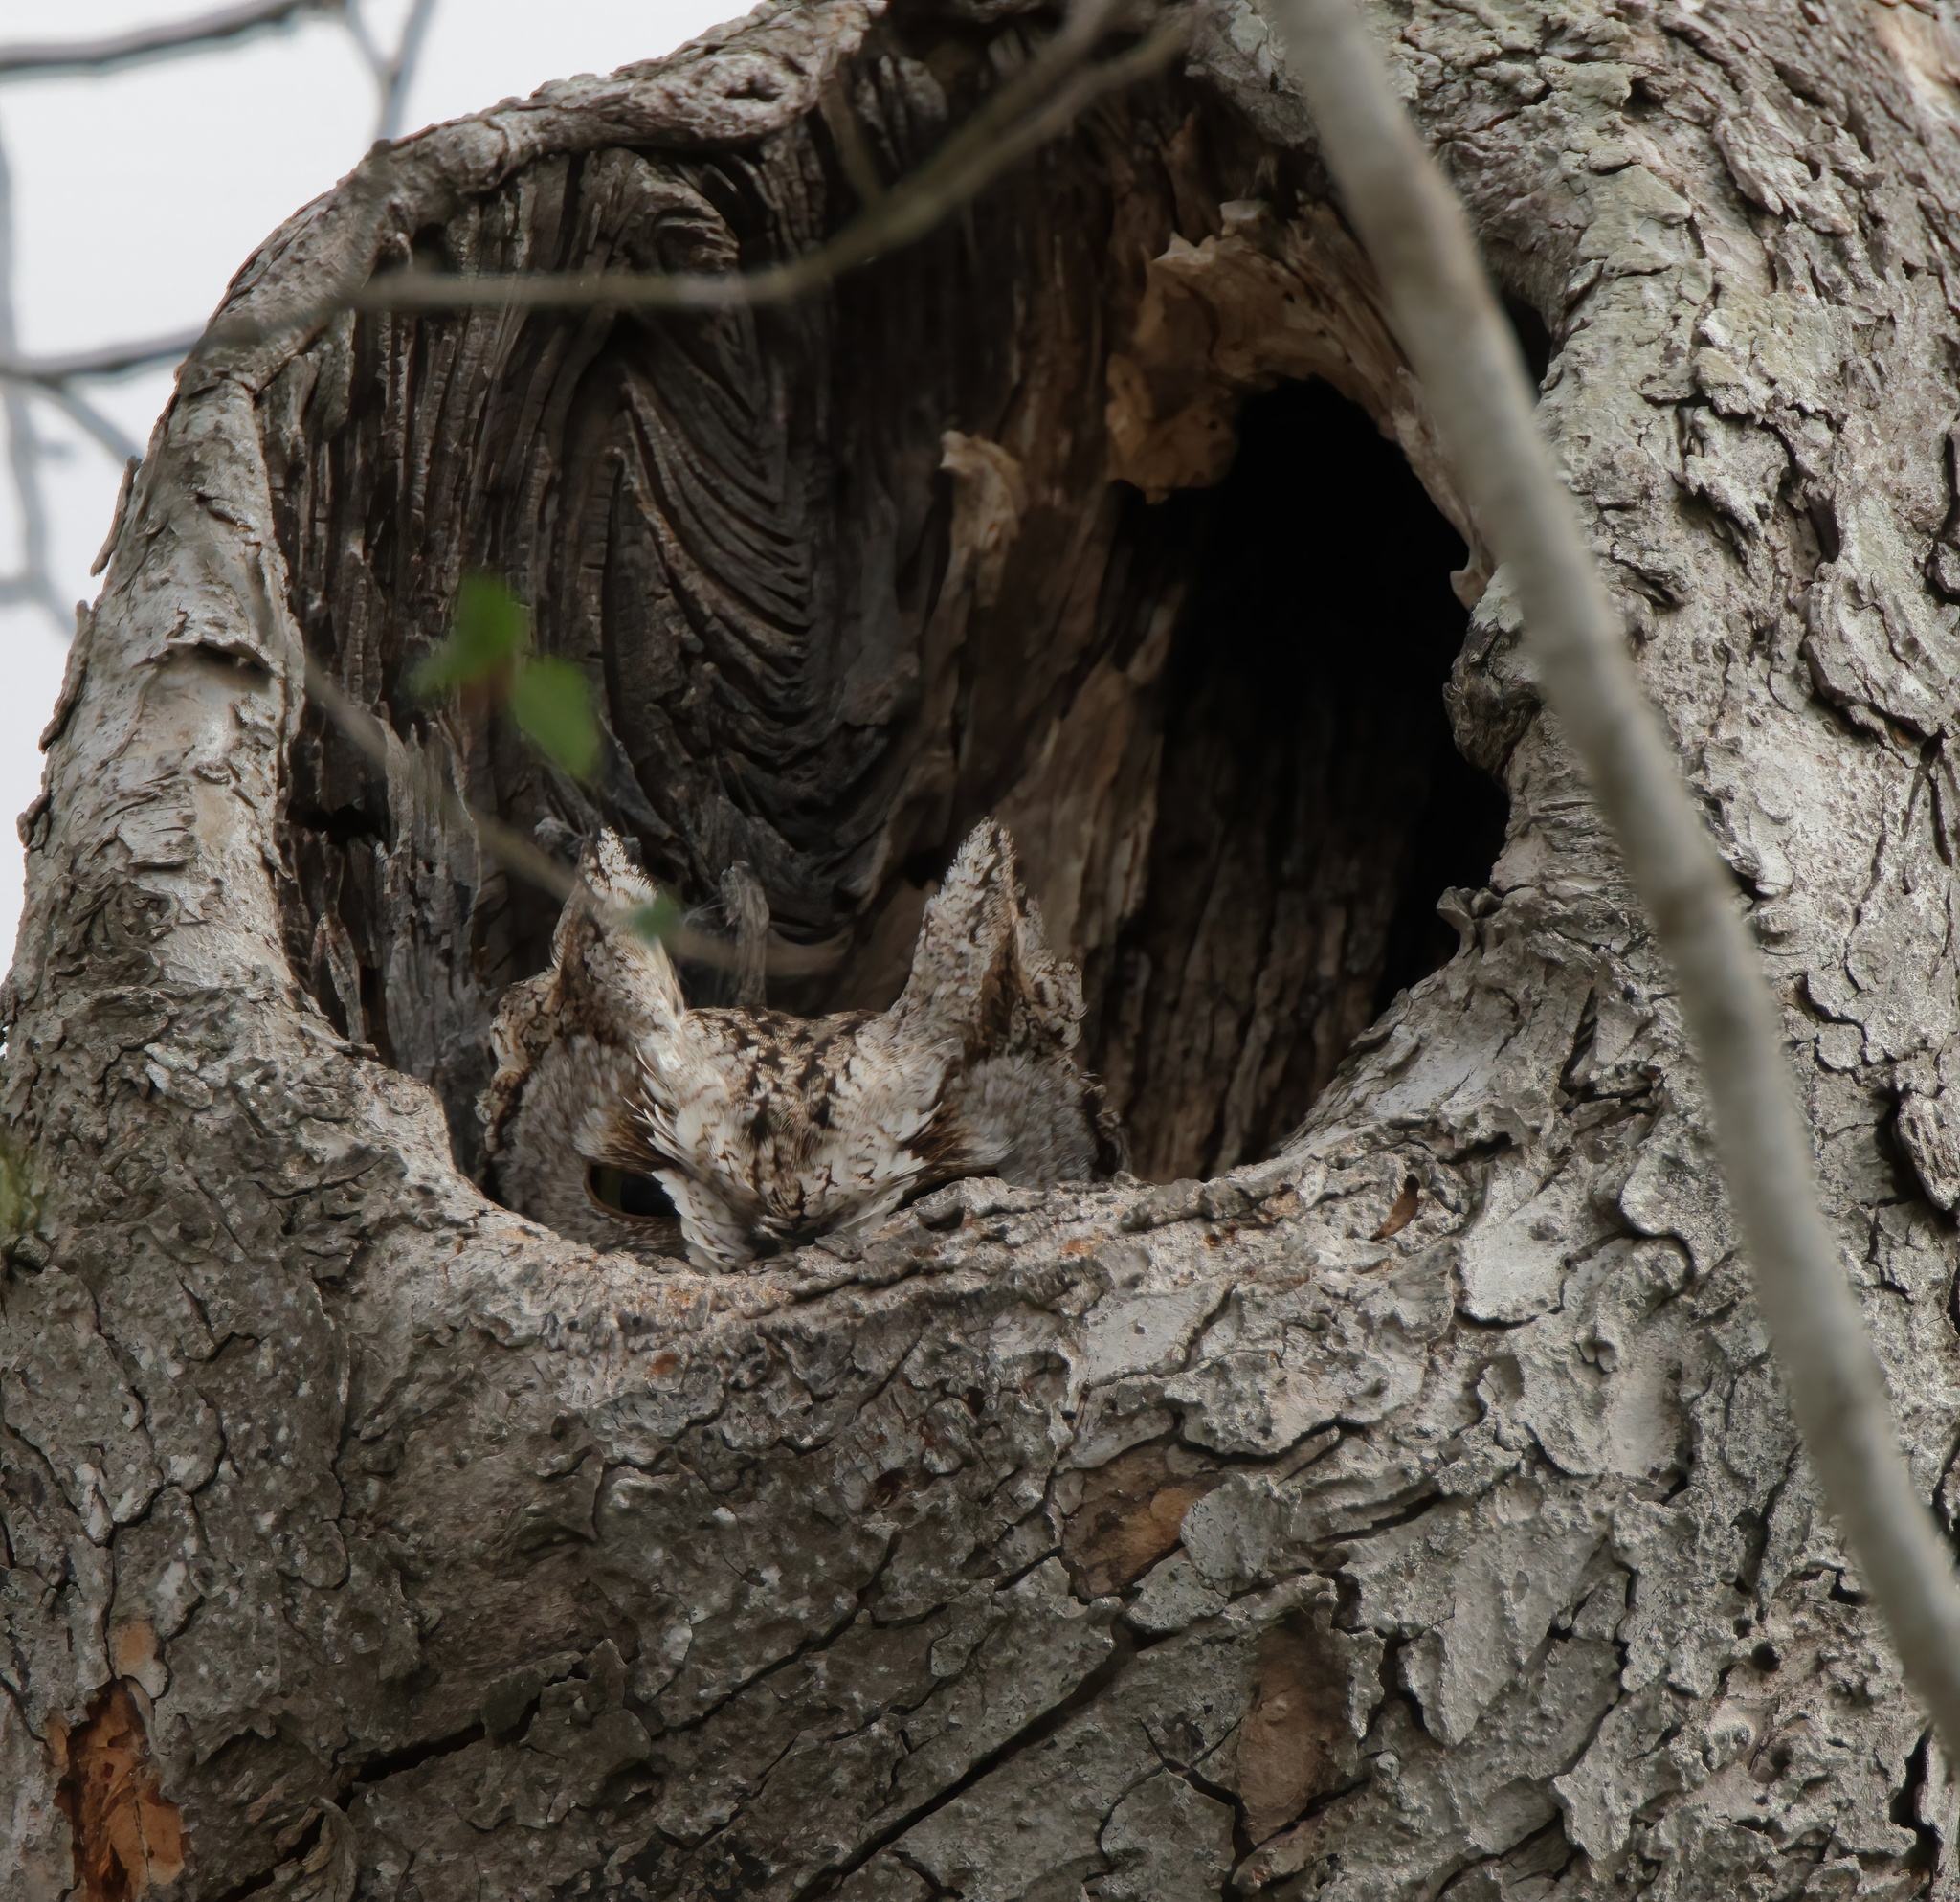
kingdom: Animalia
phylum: Chordata
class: Aves
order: Strigiformes
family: Strigidae
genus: Megascops
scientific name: Megascops asio
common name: Eastern screech-owl
